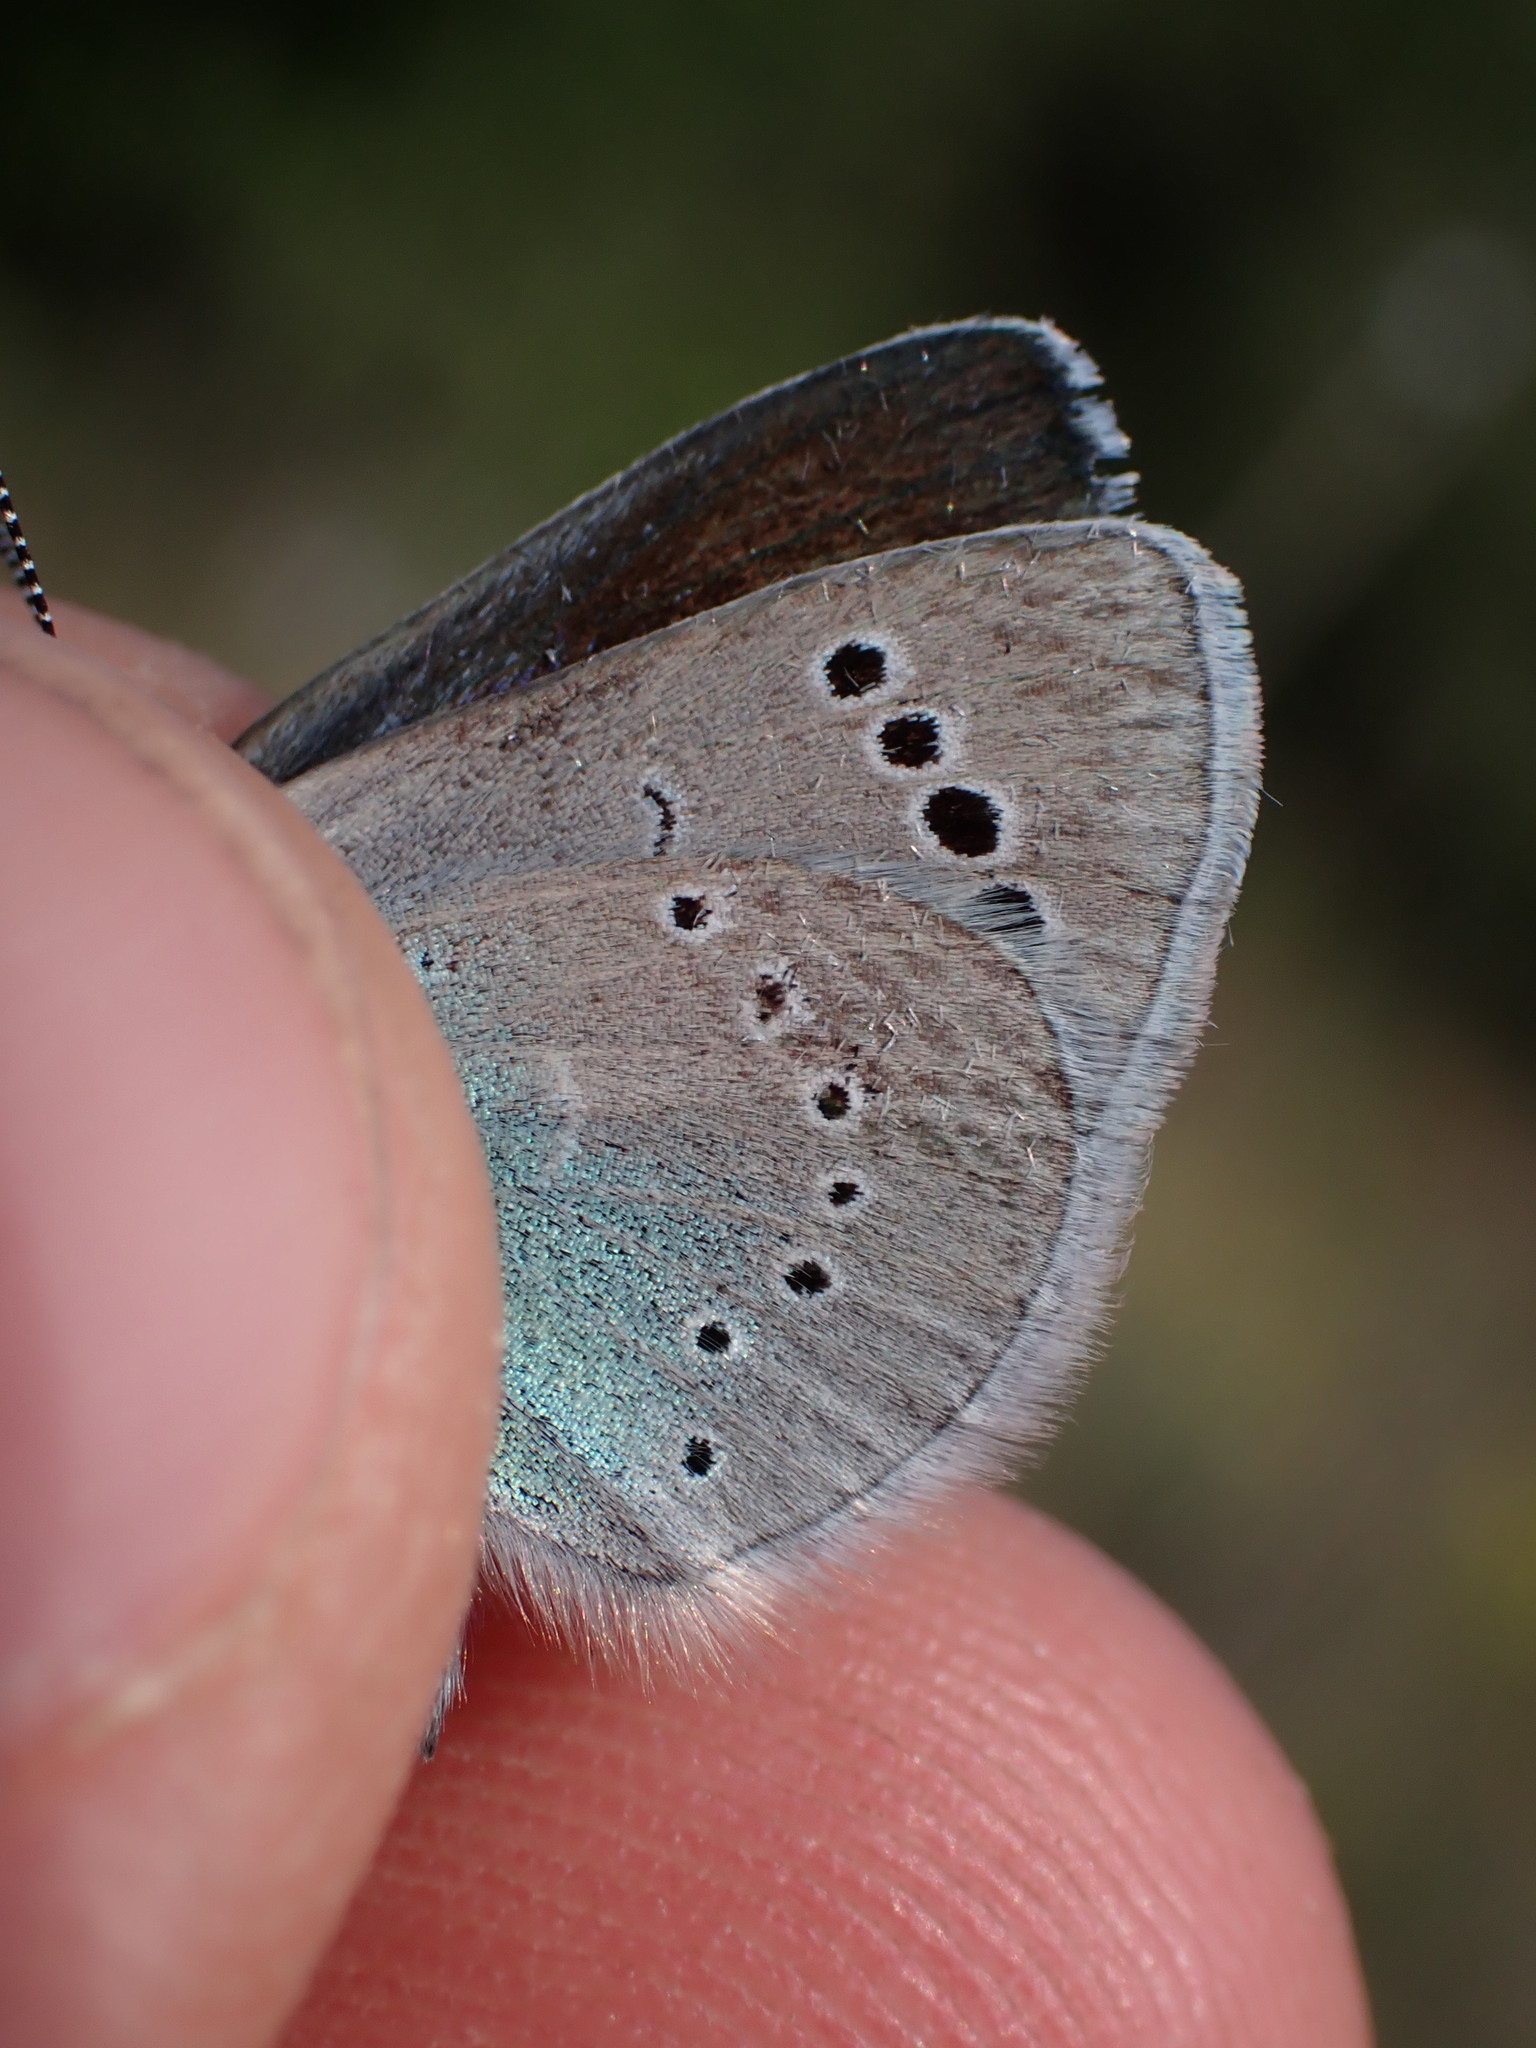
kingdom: Animalia
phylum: Arthropoda
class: Insecta
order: Lepidoptera
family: Lycaenidae
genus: Glaucopsyche
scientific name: Glaucopsyche alexis
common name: Green-underside blue
